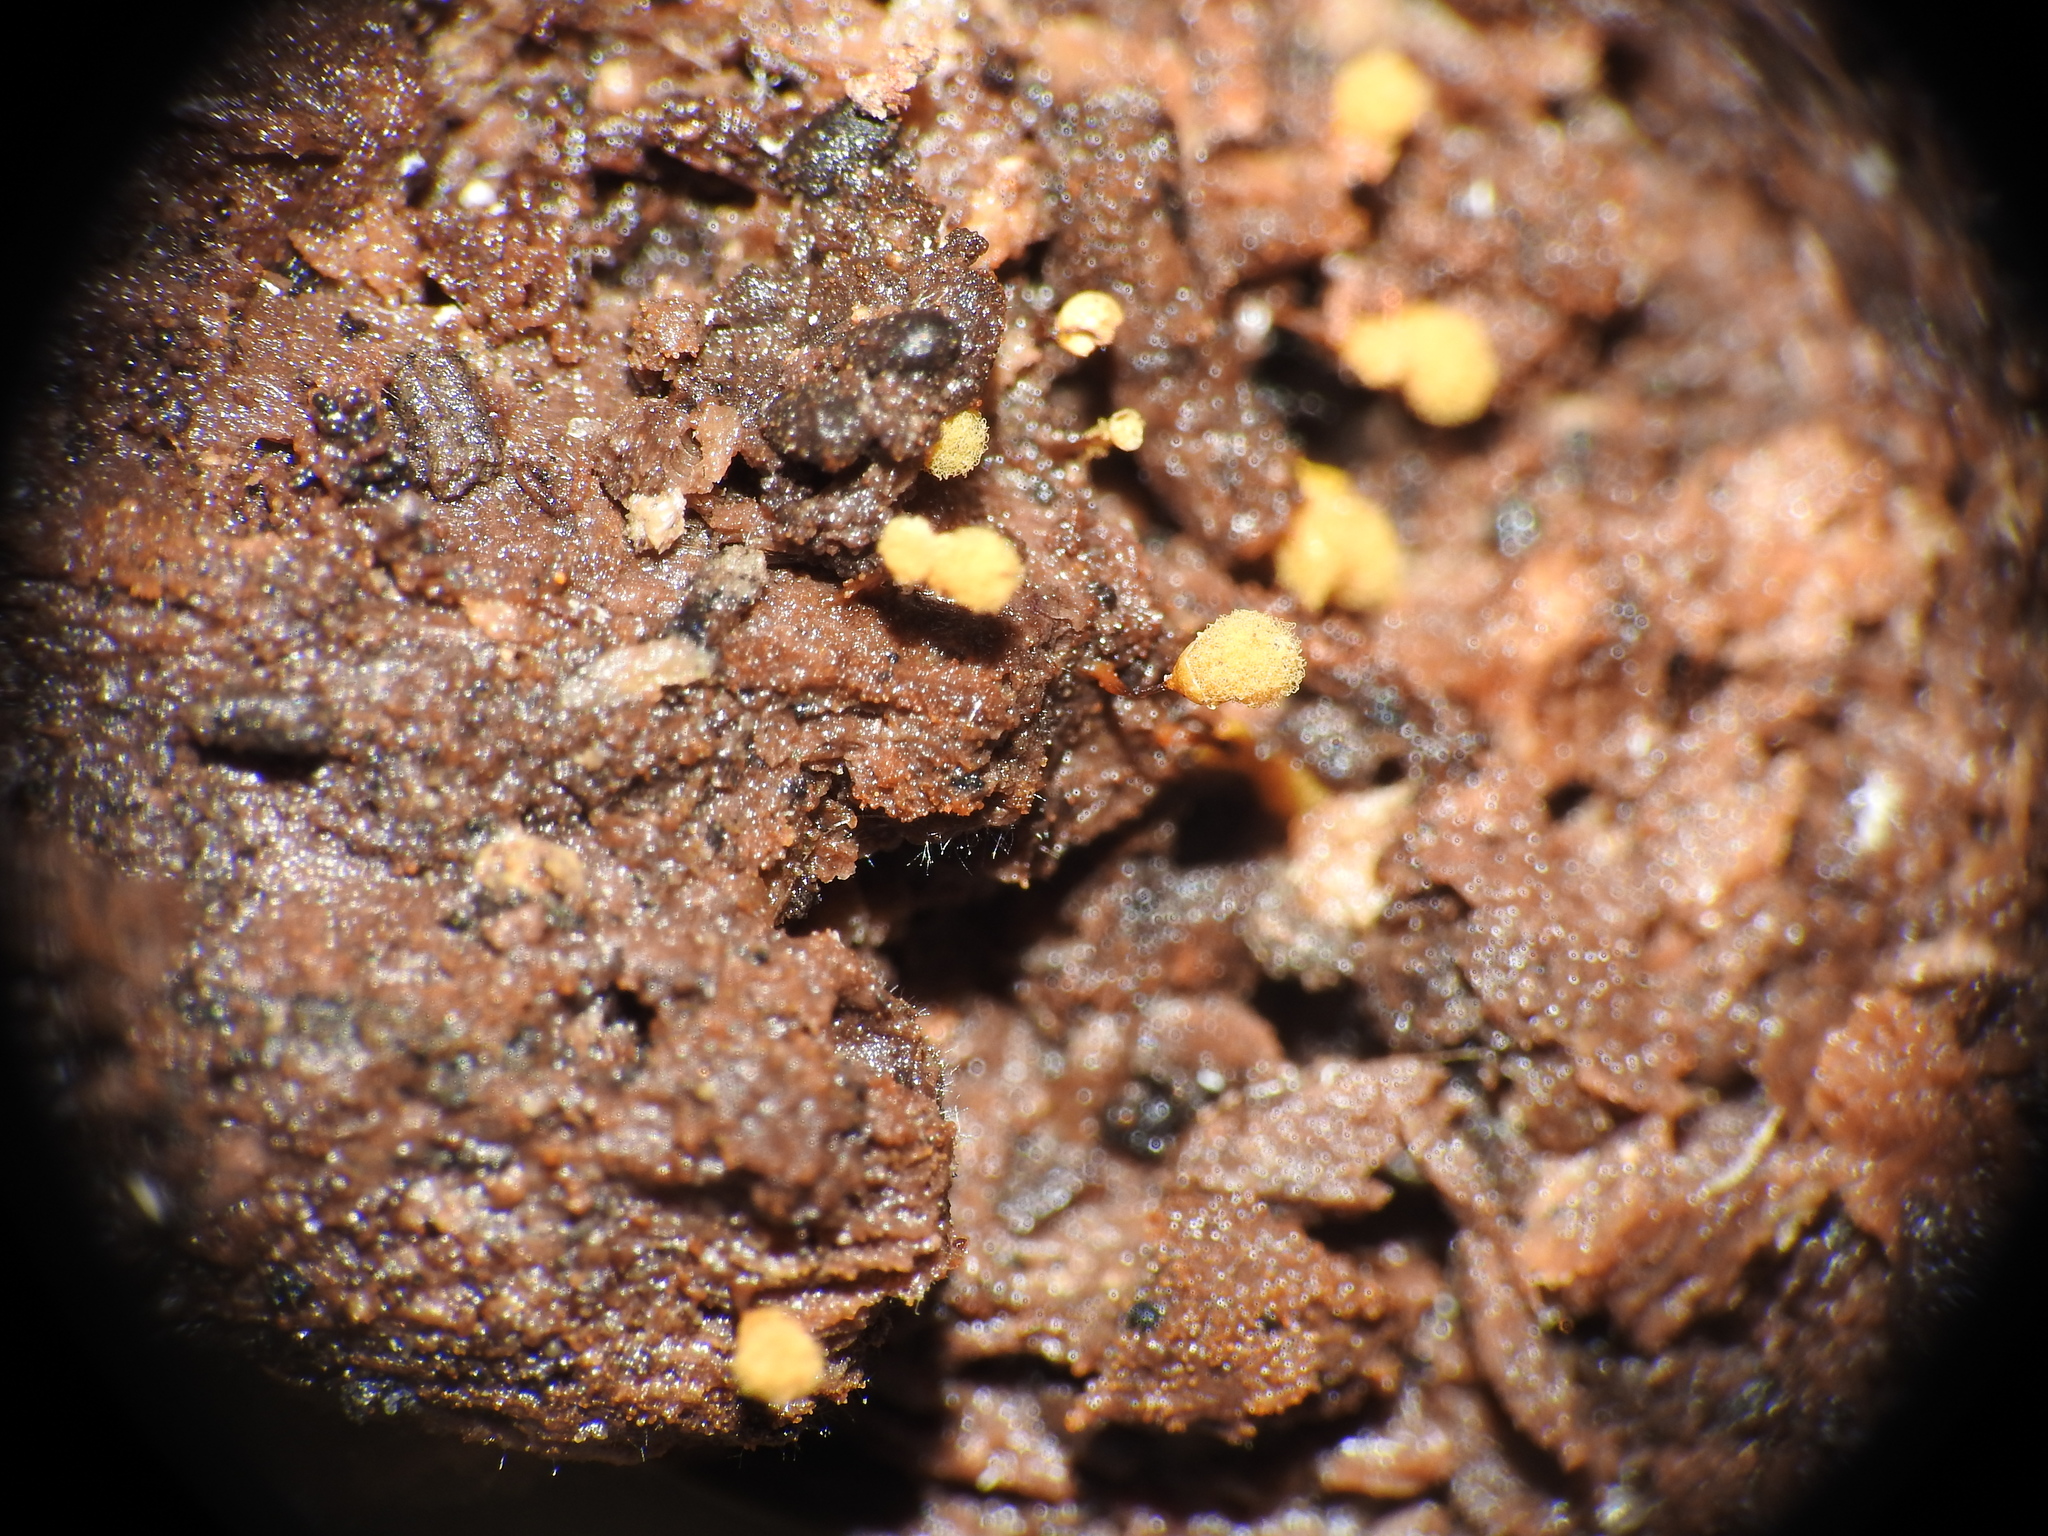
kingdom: Protozoa
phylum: Mycetozoa
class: Myxomycetes
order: Trichiales
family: Arcyriaceae
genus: Hemitrichia
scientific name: Hemitrichia calyculata
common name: Push pin slime mold
